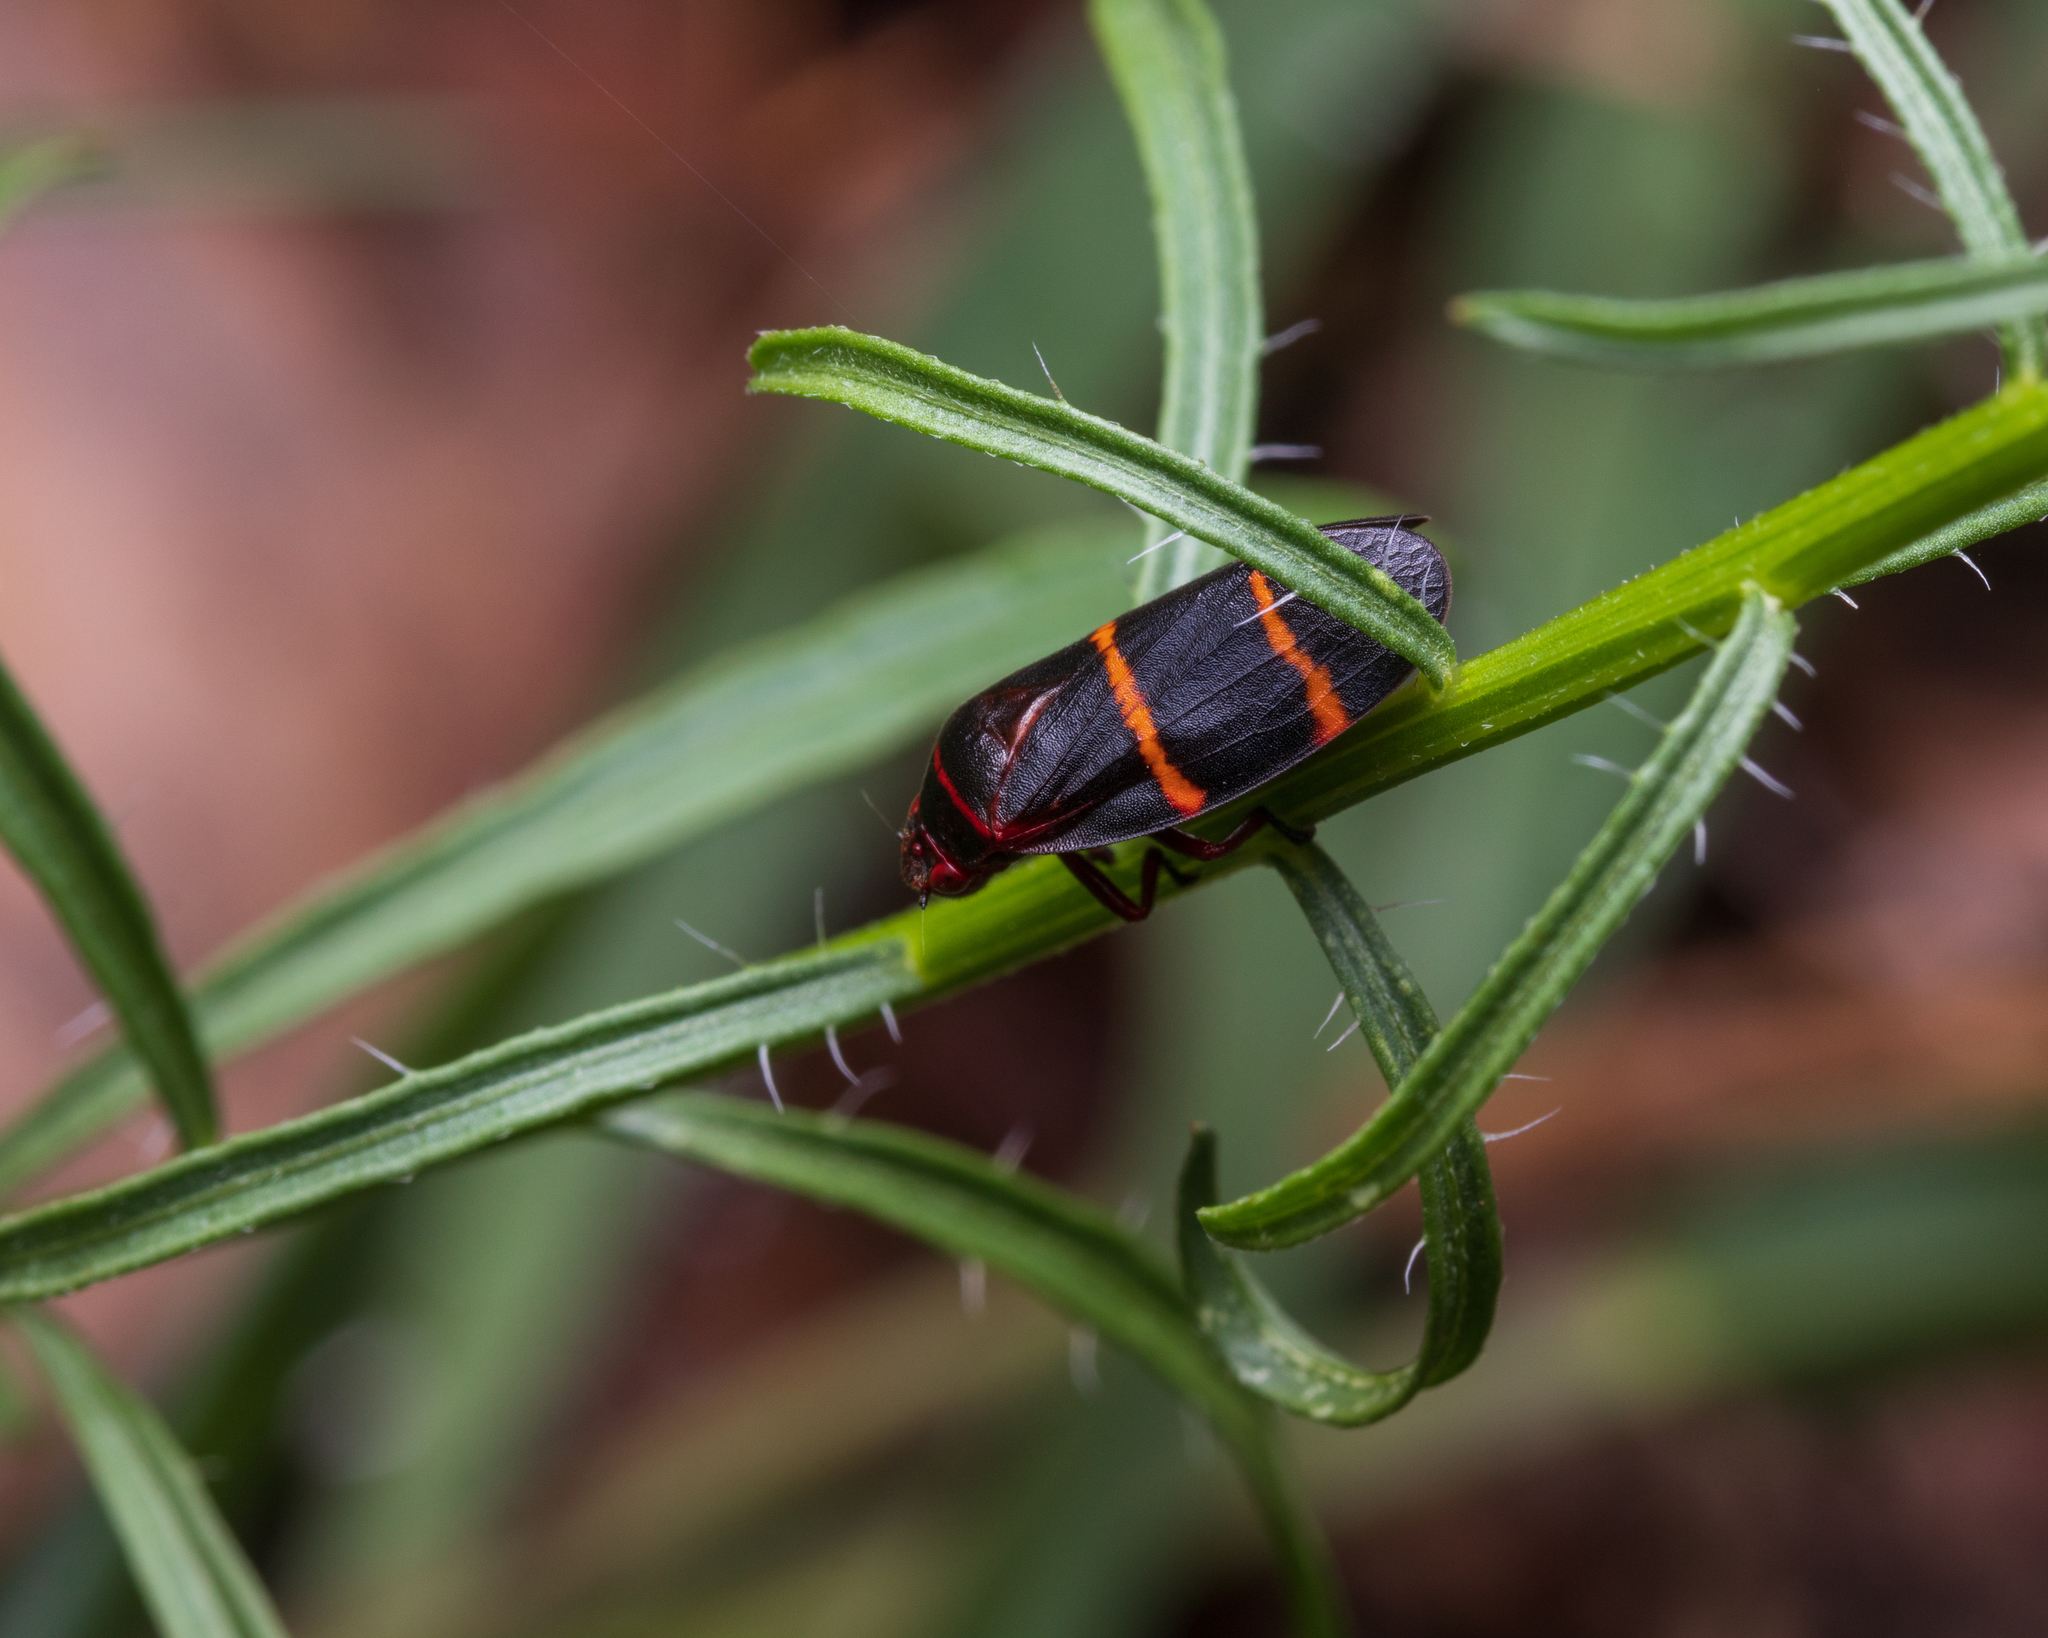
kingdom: Animalia
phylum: Arthropoda
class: Insecta
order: Hemiptera
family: Cercopidae
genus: Prosapia
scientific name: Prosapia bicincta
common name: Twolined spittlebug
